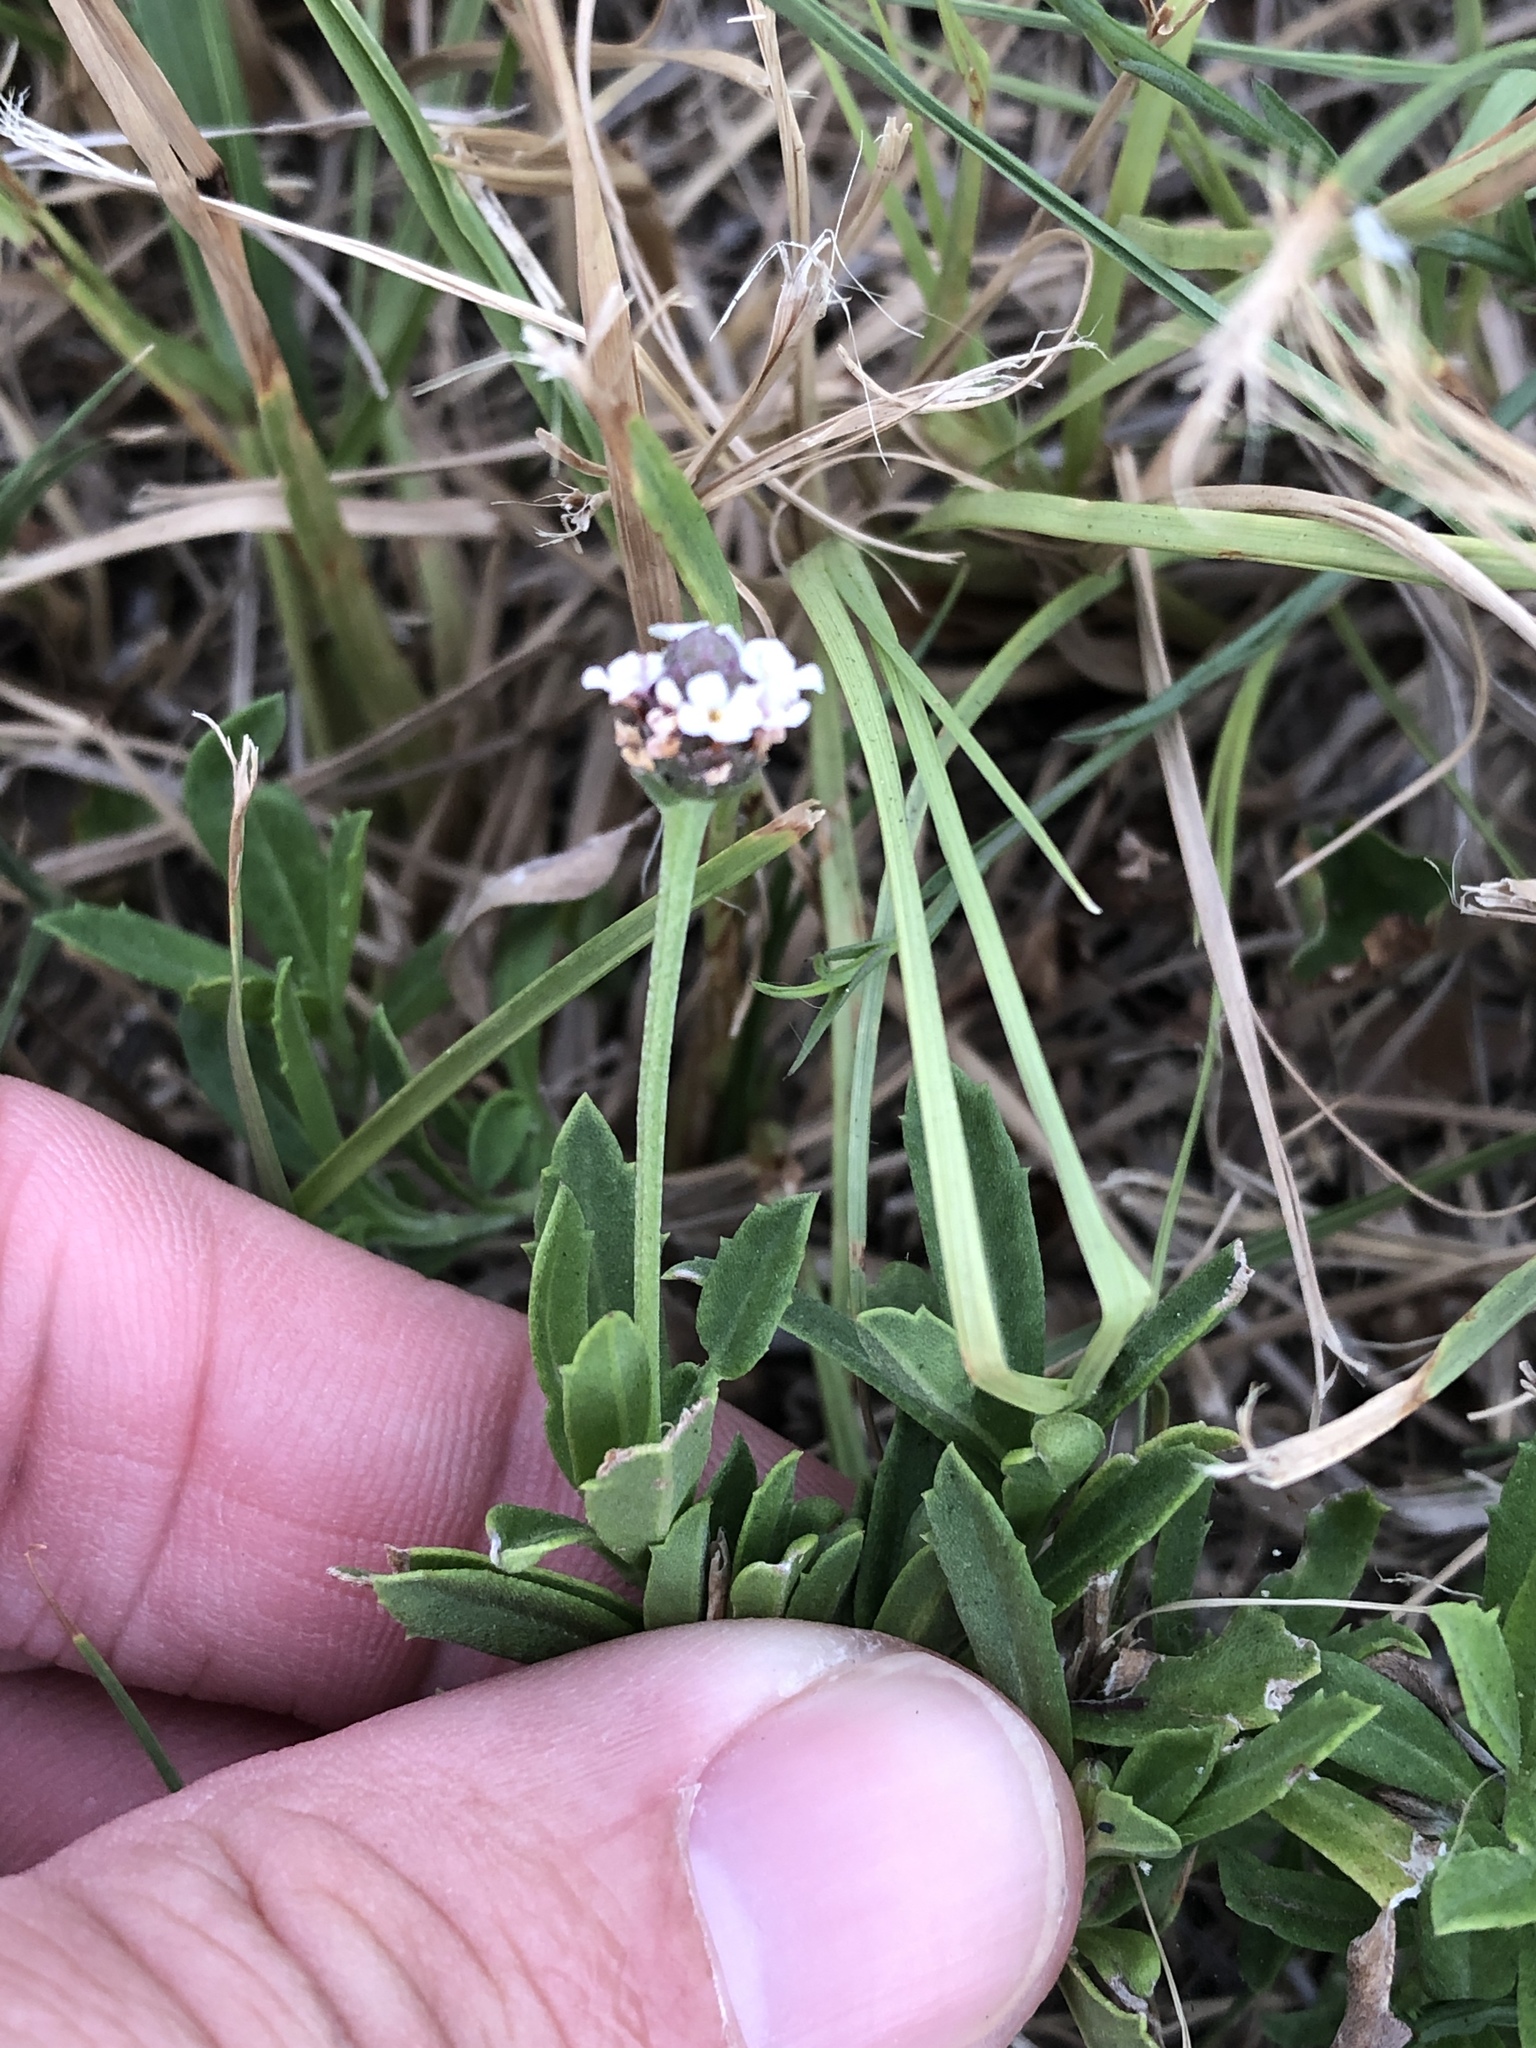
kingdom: Plantae
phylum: Tracheophyta
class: Magnoliopsida
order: Lamiales
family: Verbenaceae
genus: Phyla
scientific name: Phyla nodiflora
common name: Frogfruit
